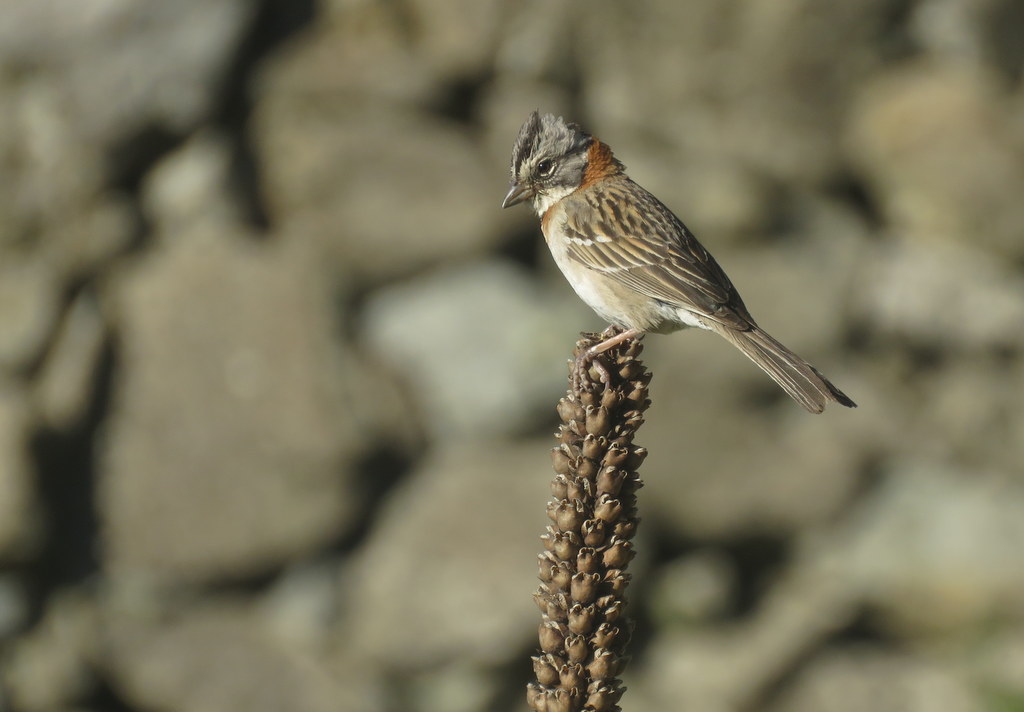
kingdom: Animalia
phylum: Chordata
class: Aves
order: Passeriformes
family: Passerellidae
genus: Zonotrichia
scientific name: Zonotrichia capensis
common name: Rufous-collared sparrow
